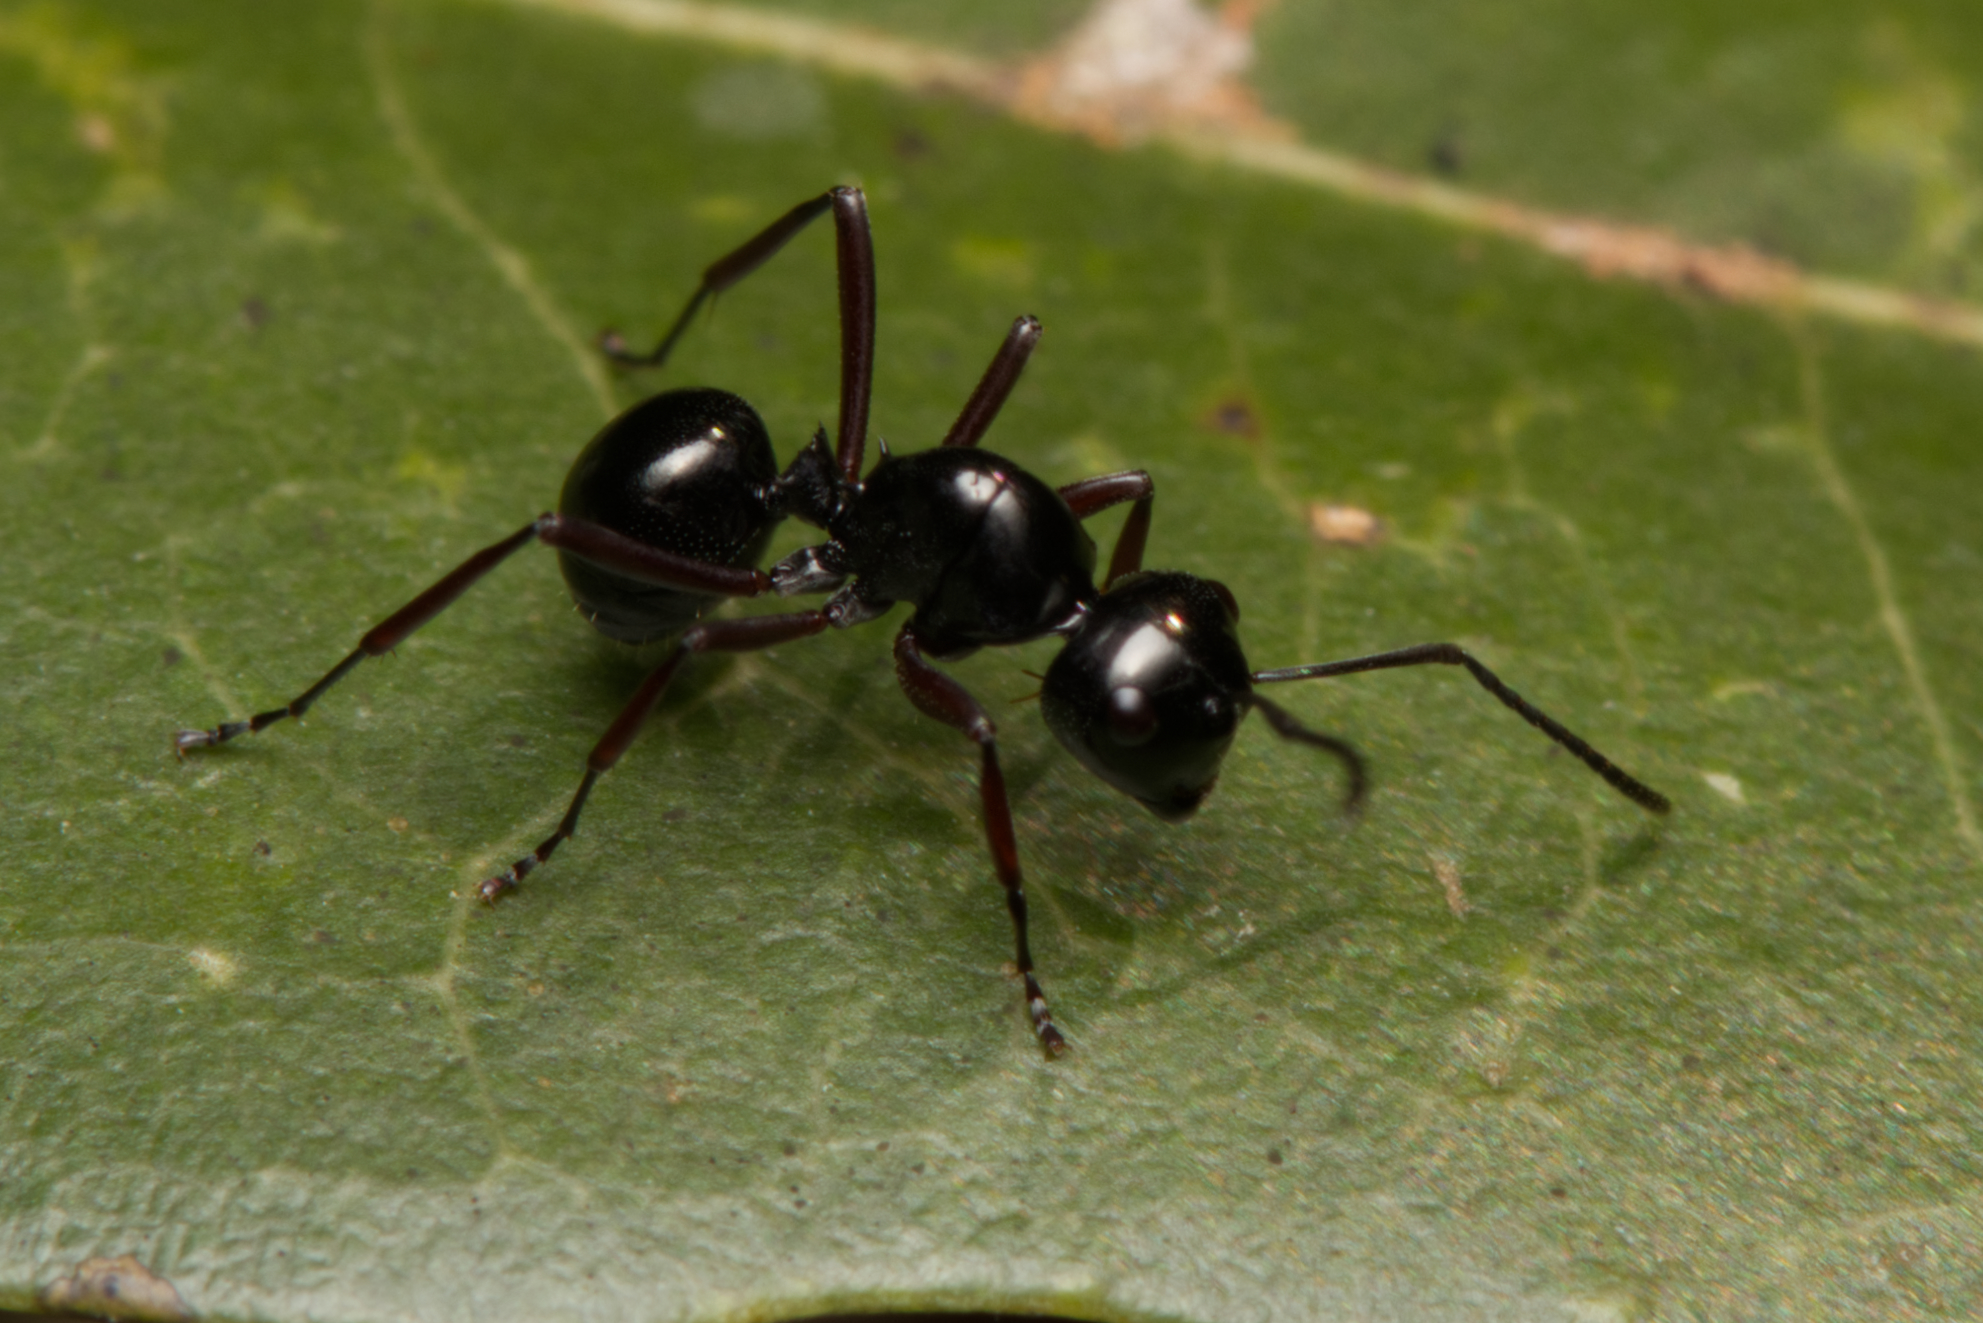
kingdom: Animalia
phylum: Arthropoda
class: Insecta
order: Hymenoptera
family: Formicidae
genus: Polyrhachis
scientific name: Polyrhachis australis
